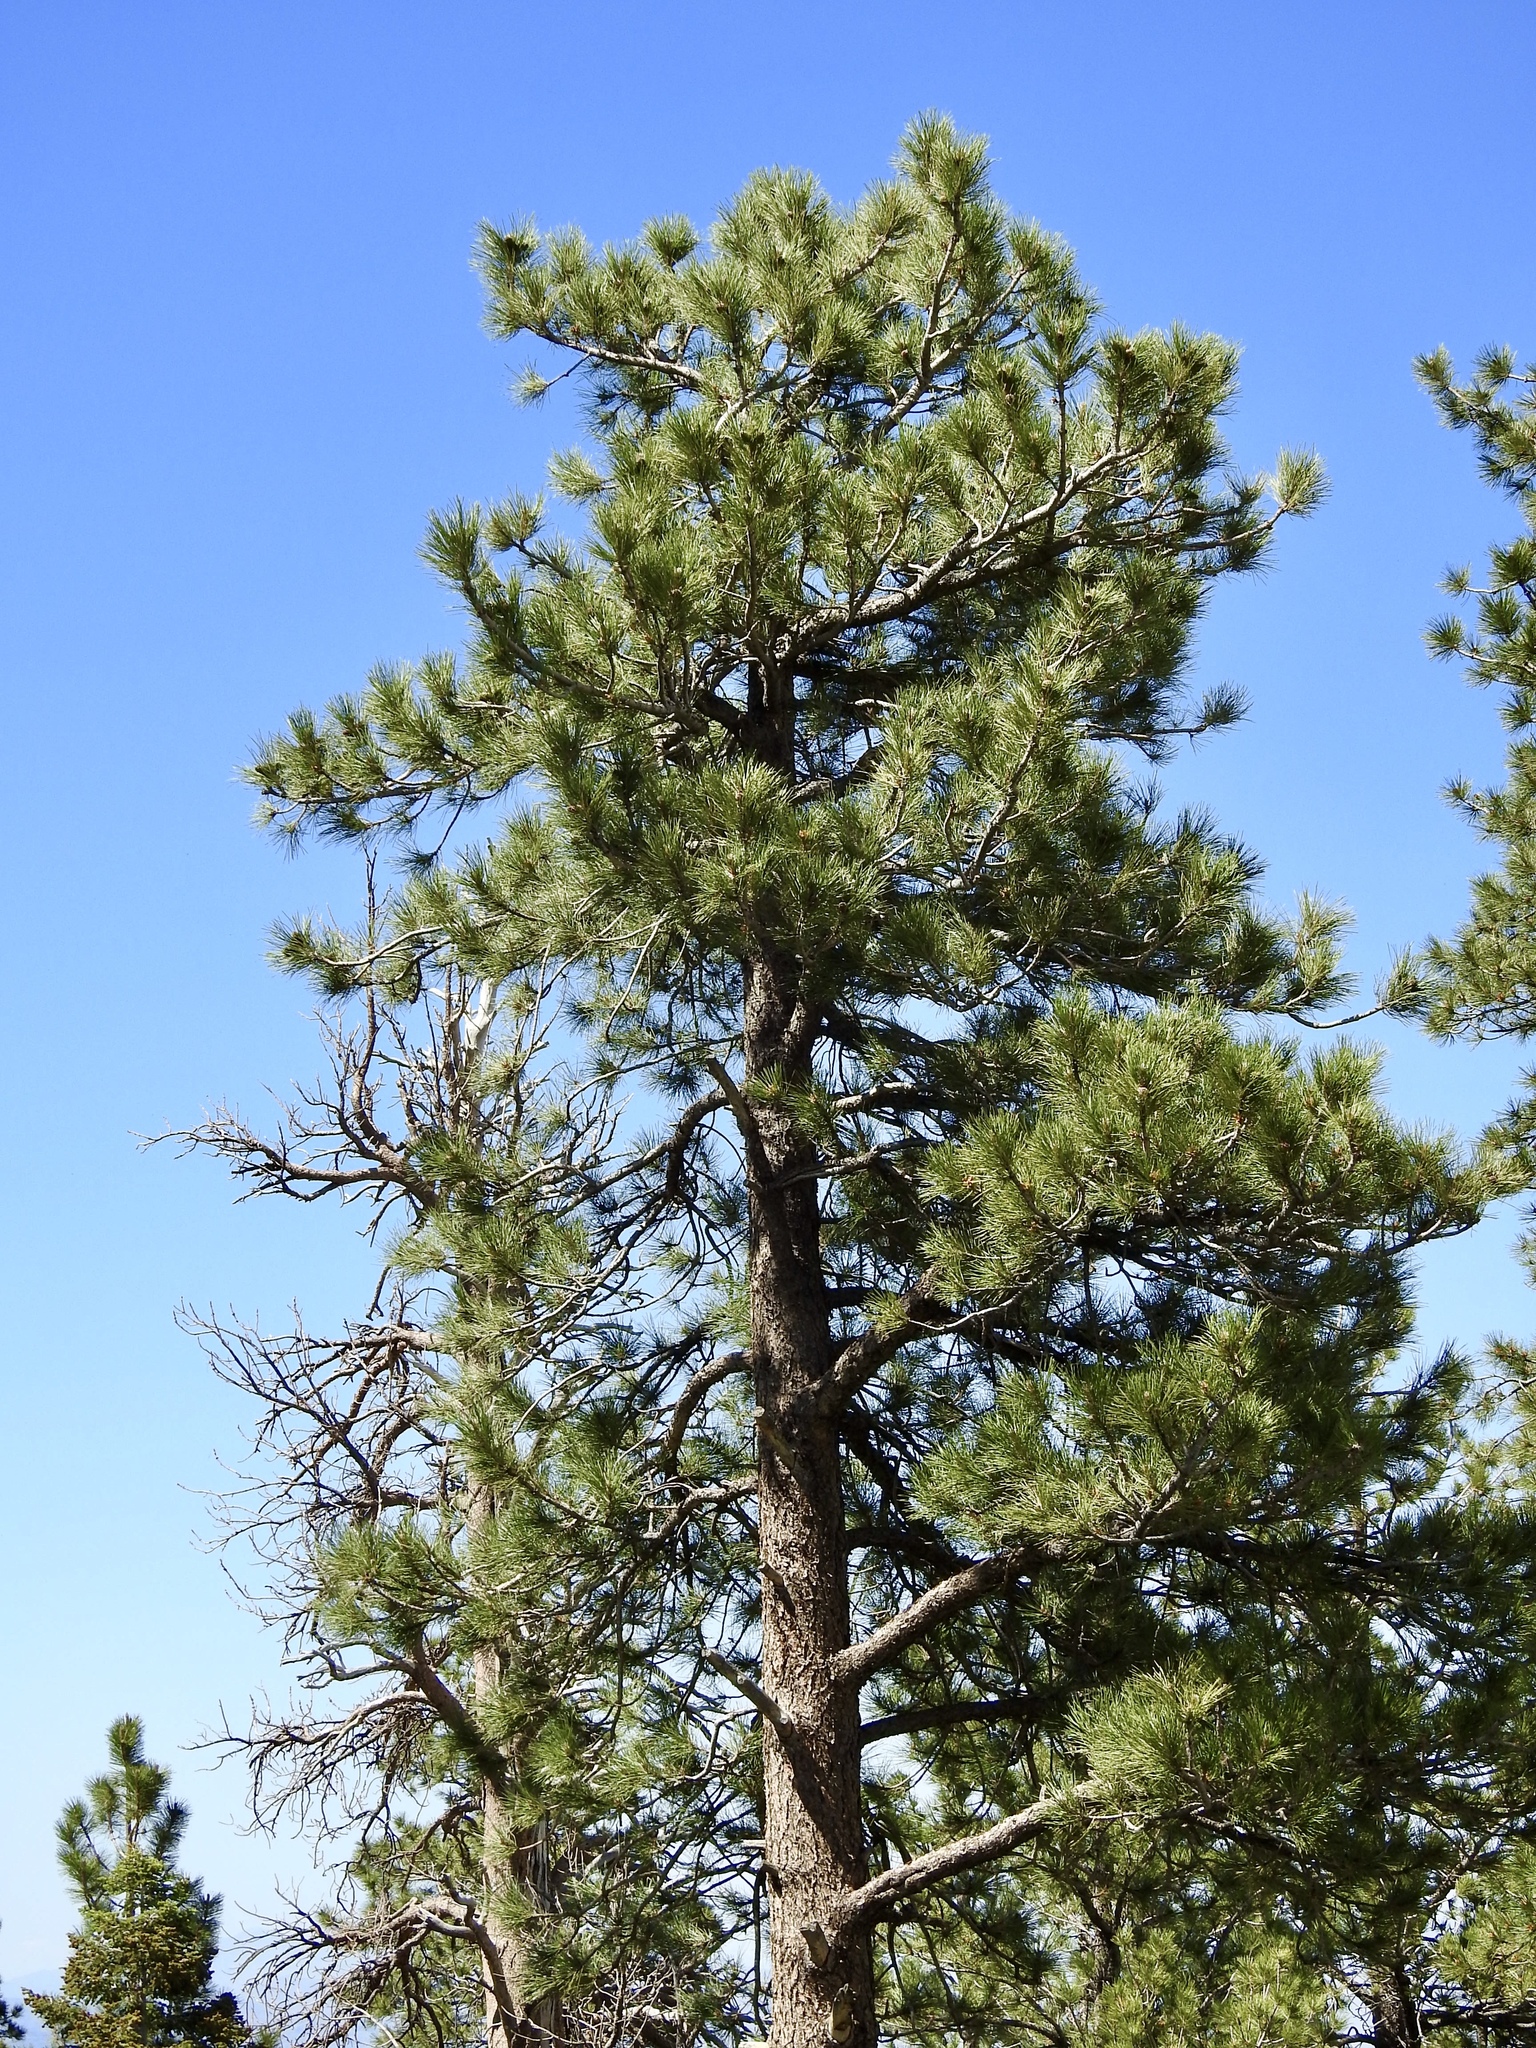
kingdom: Plantae
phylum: Tracheophyta
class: Pinopsida
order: Pinales
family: Pinaceae
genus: Pinus
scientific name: Pinus ponderosa
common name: Western yellow-pine
